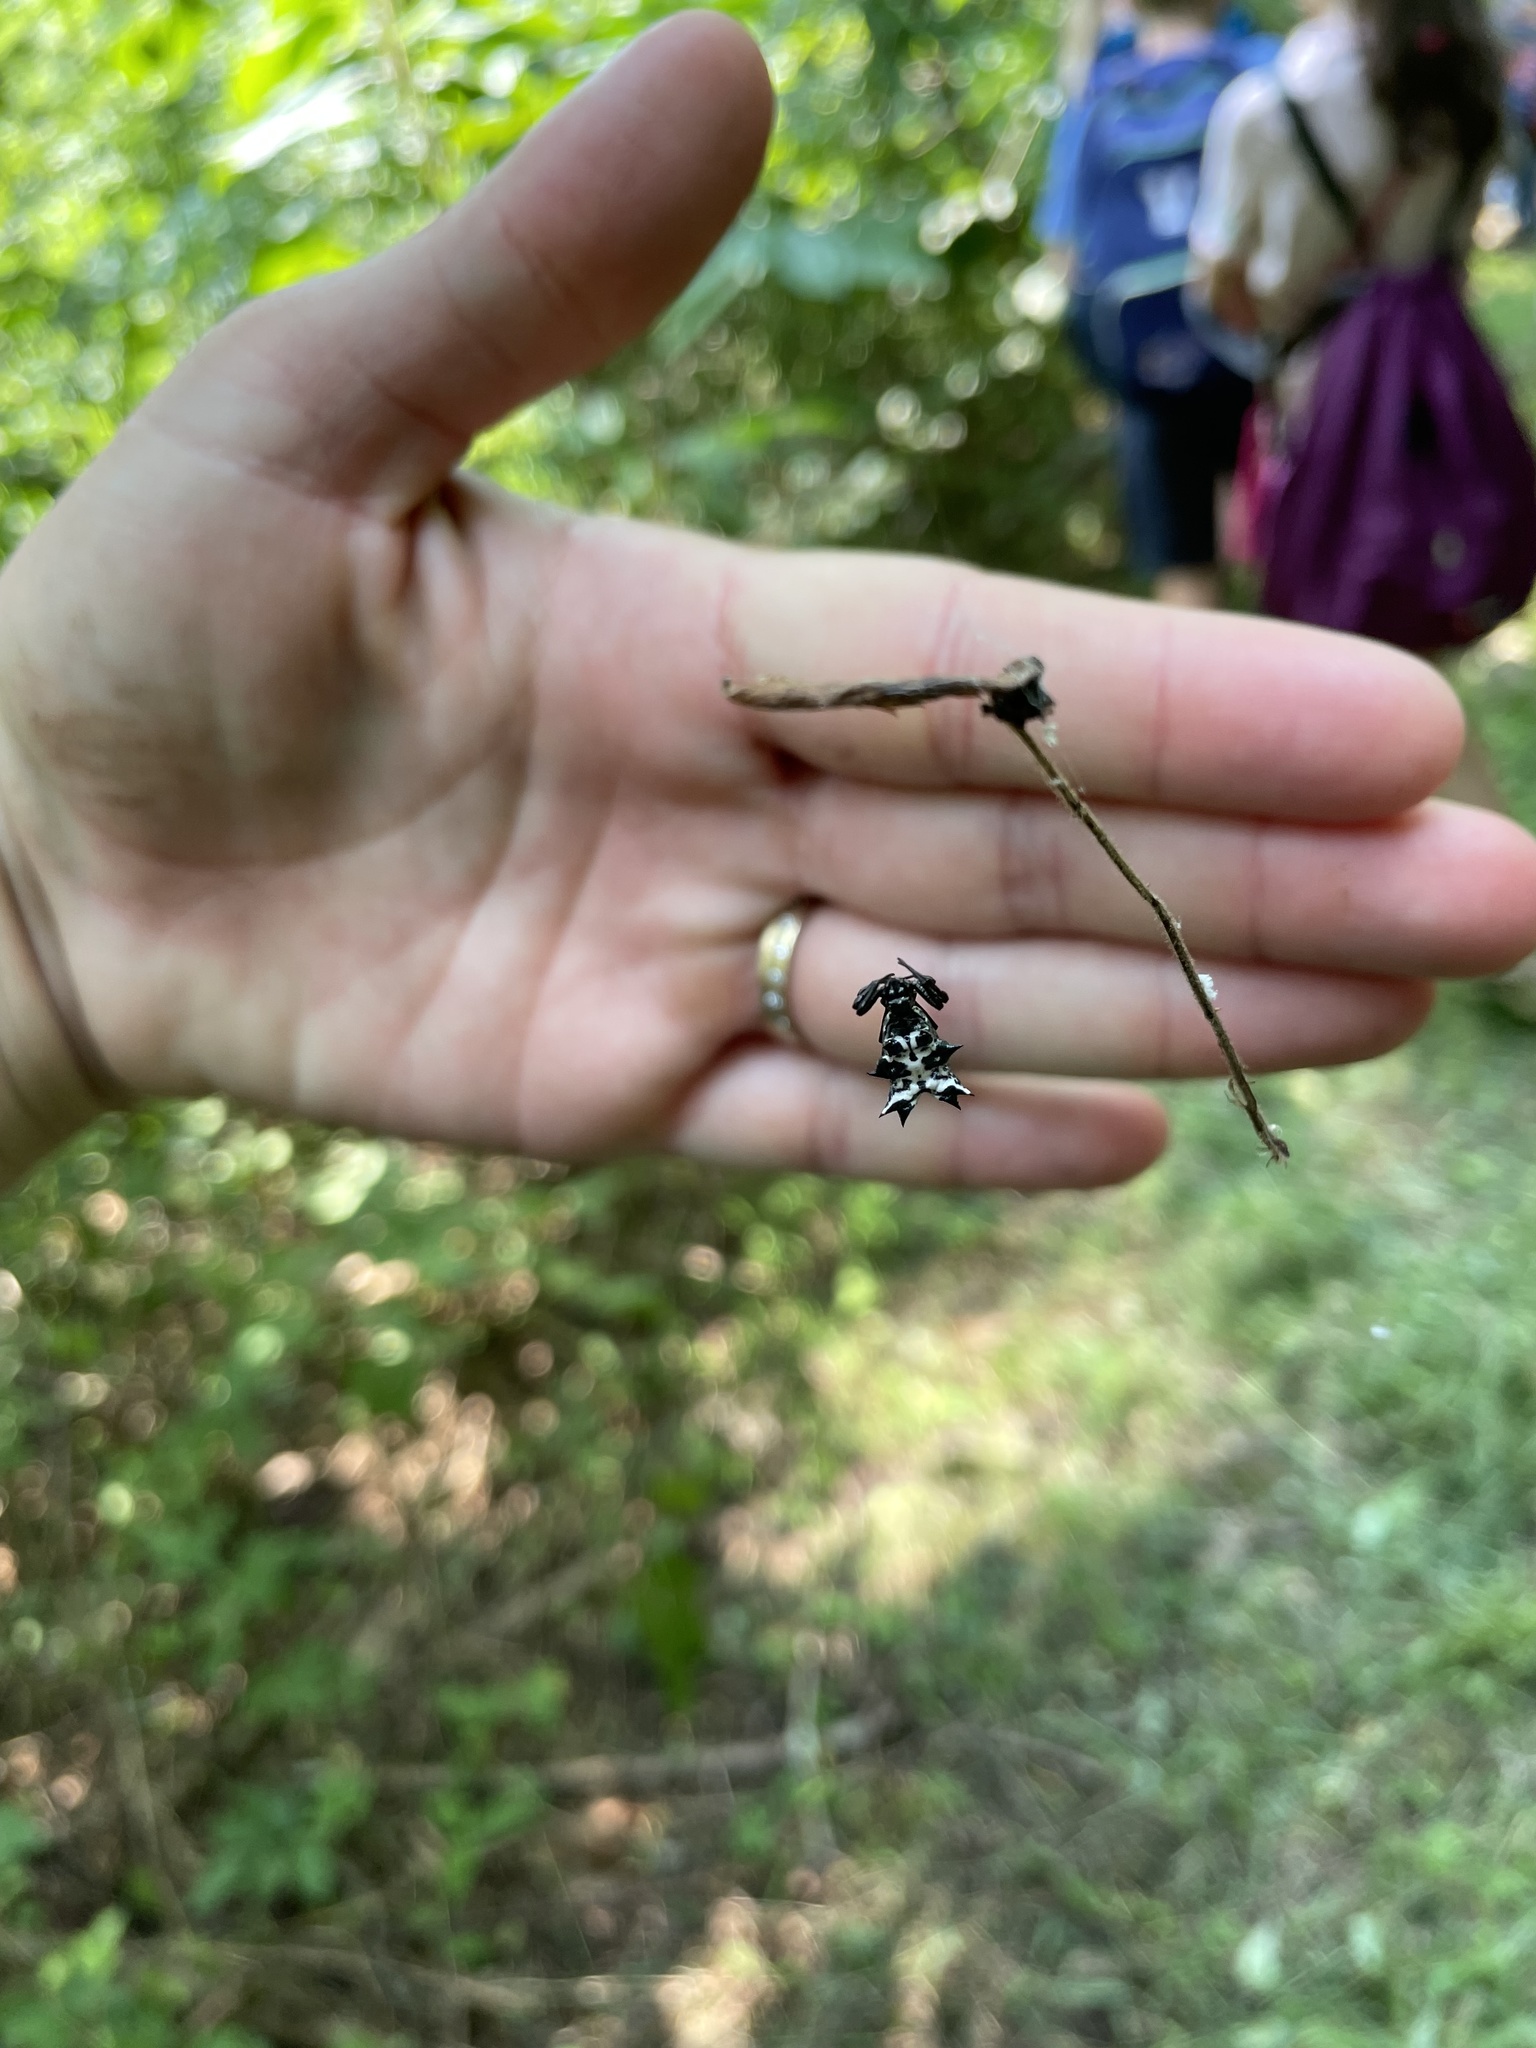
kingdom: Animalia
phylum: Arthropoda
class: Arachnida
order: Araneae
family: Araneidae
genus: Micrathena
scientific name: Micrathena gracilis
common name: Orb weavers
